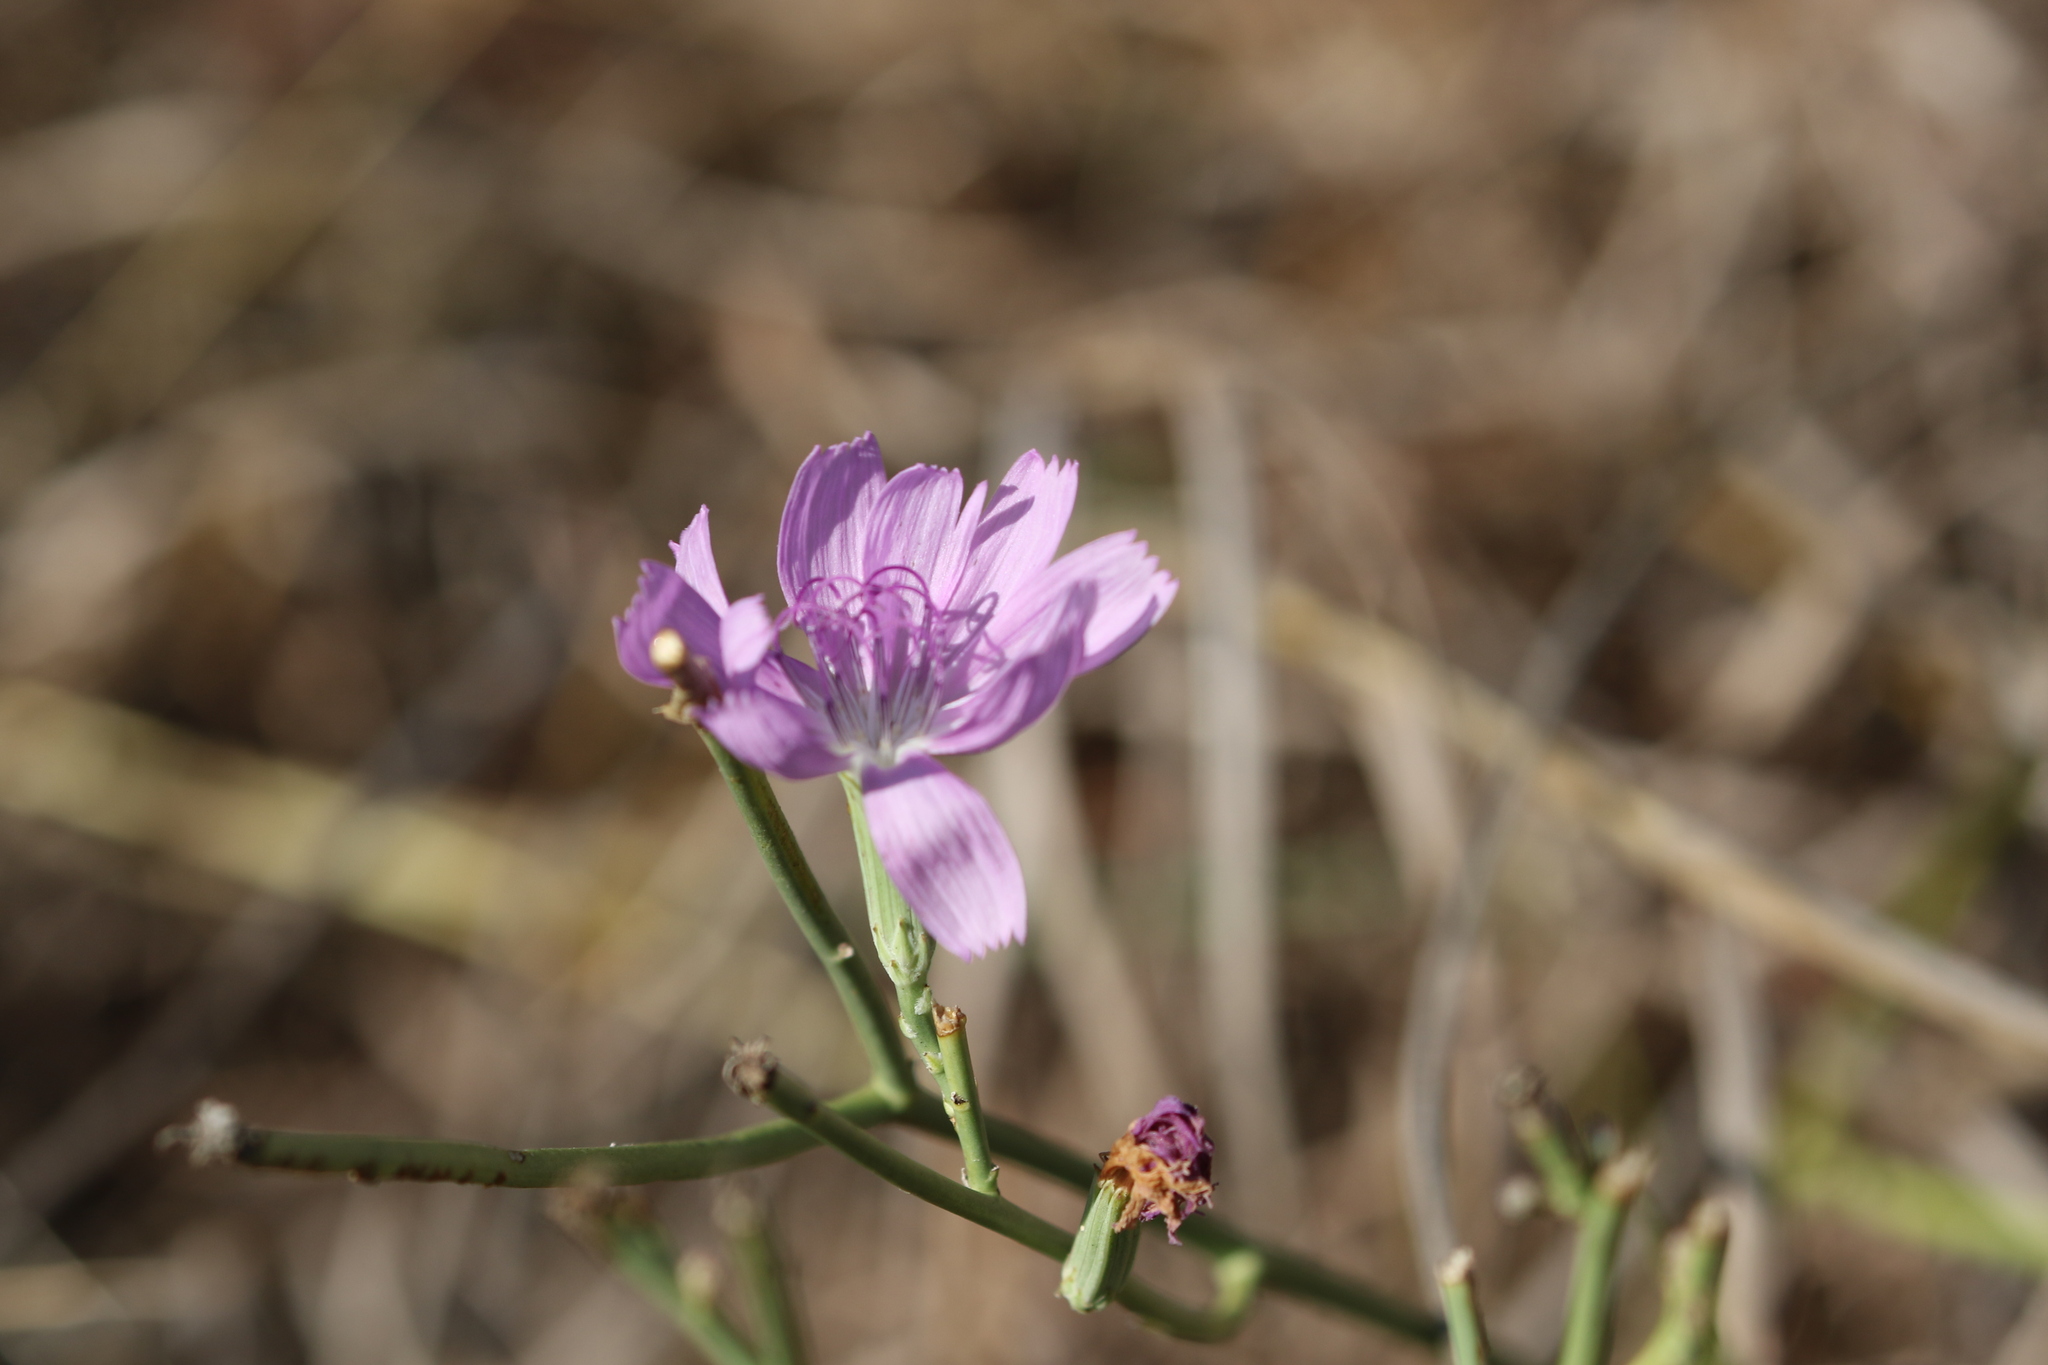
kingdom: Plantae
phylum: Tracheophyta
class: Magnoliopsida
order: Asterales
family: Asteraceae
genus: Lygodesmia
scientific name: Lygodesmia texana
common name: Texas skeleton-plant
